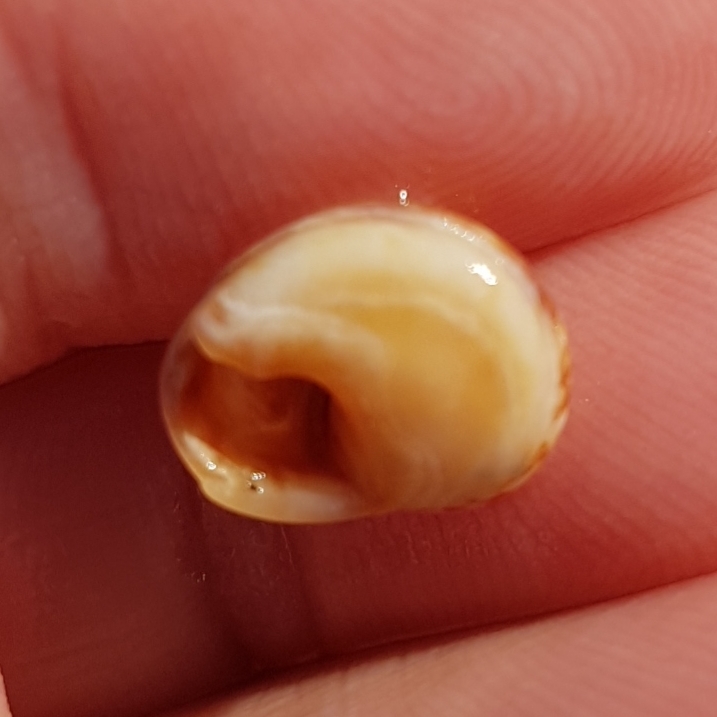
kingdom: Animalia
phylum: Mollusca
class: Gastropoda
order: Neogastropoda
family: Nassariidae
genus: Tritia
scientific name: Tritia neritea
